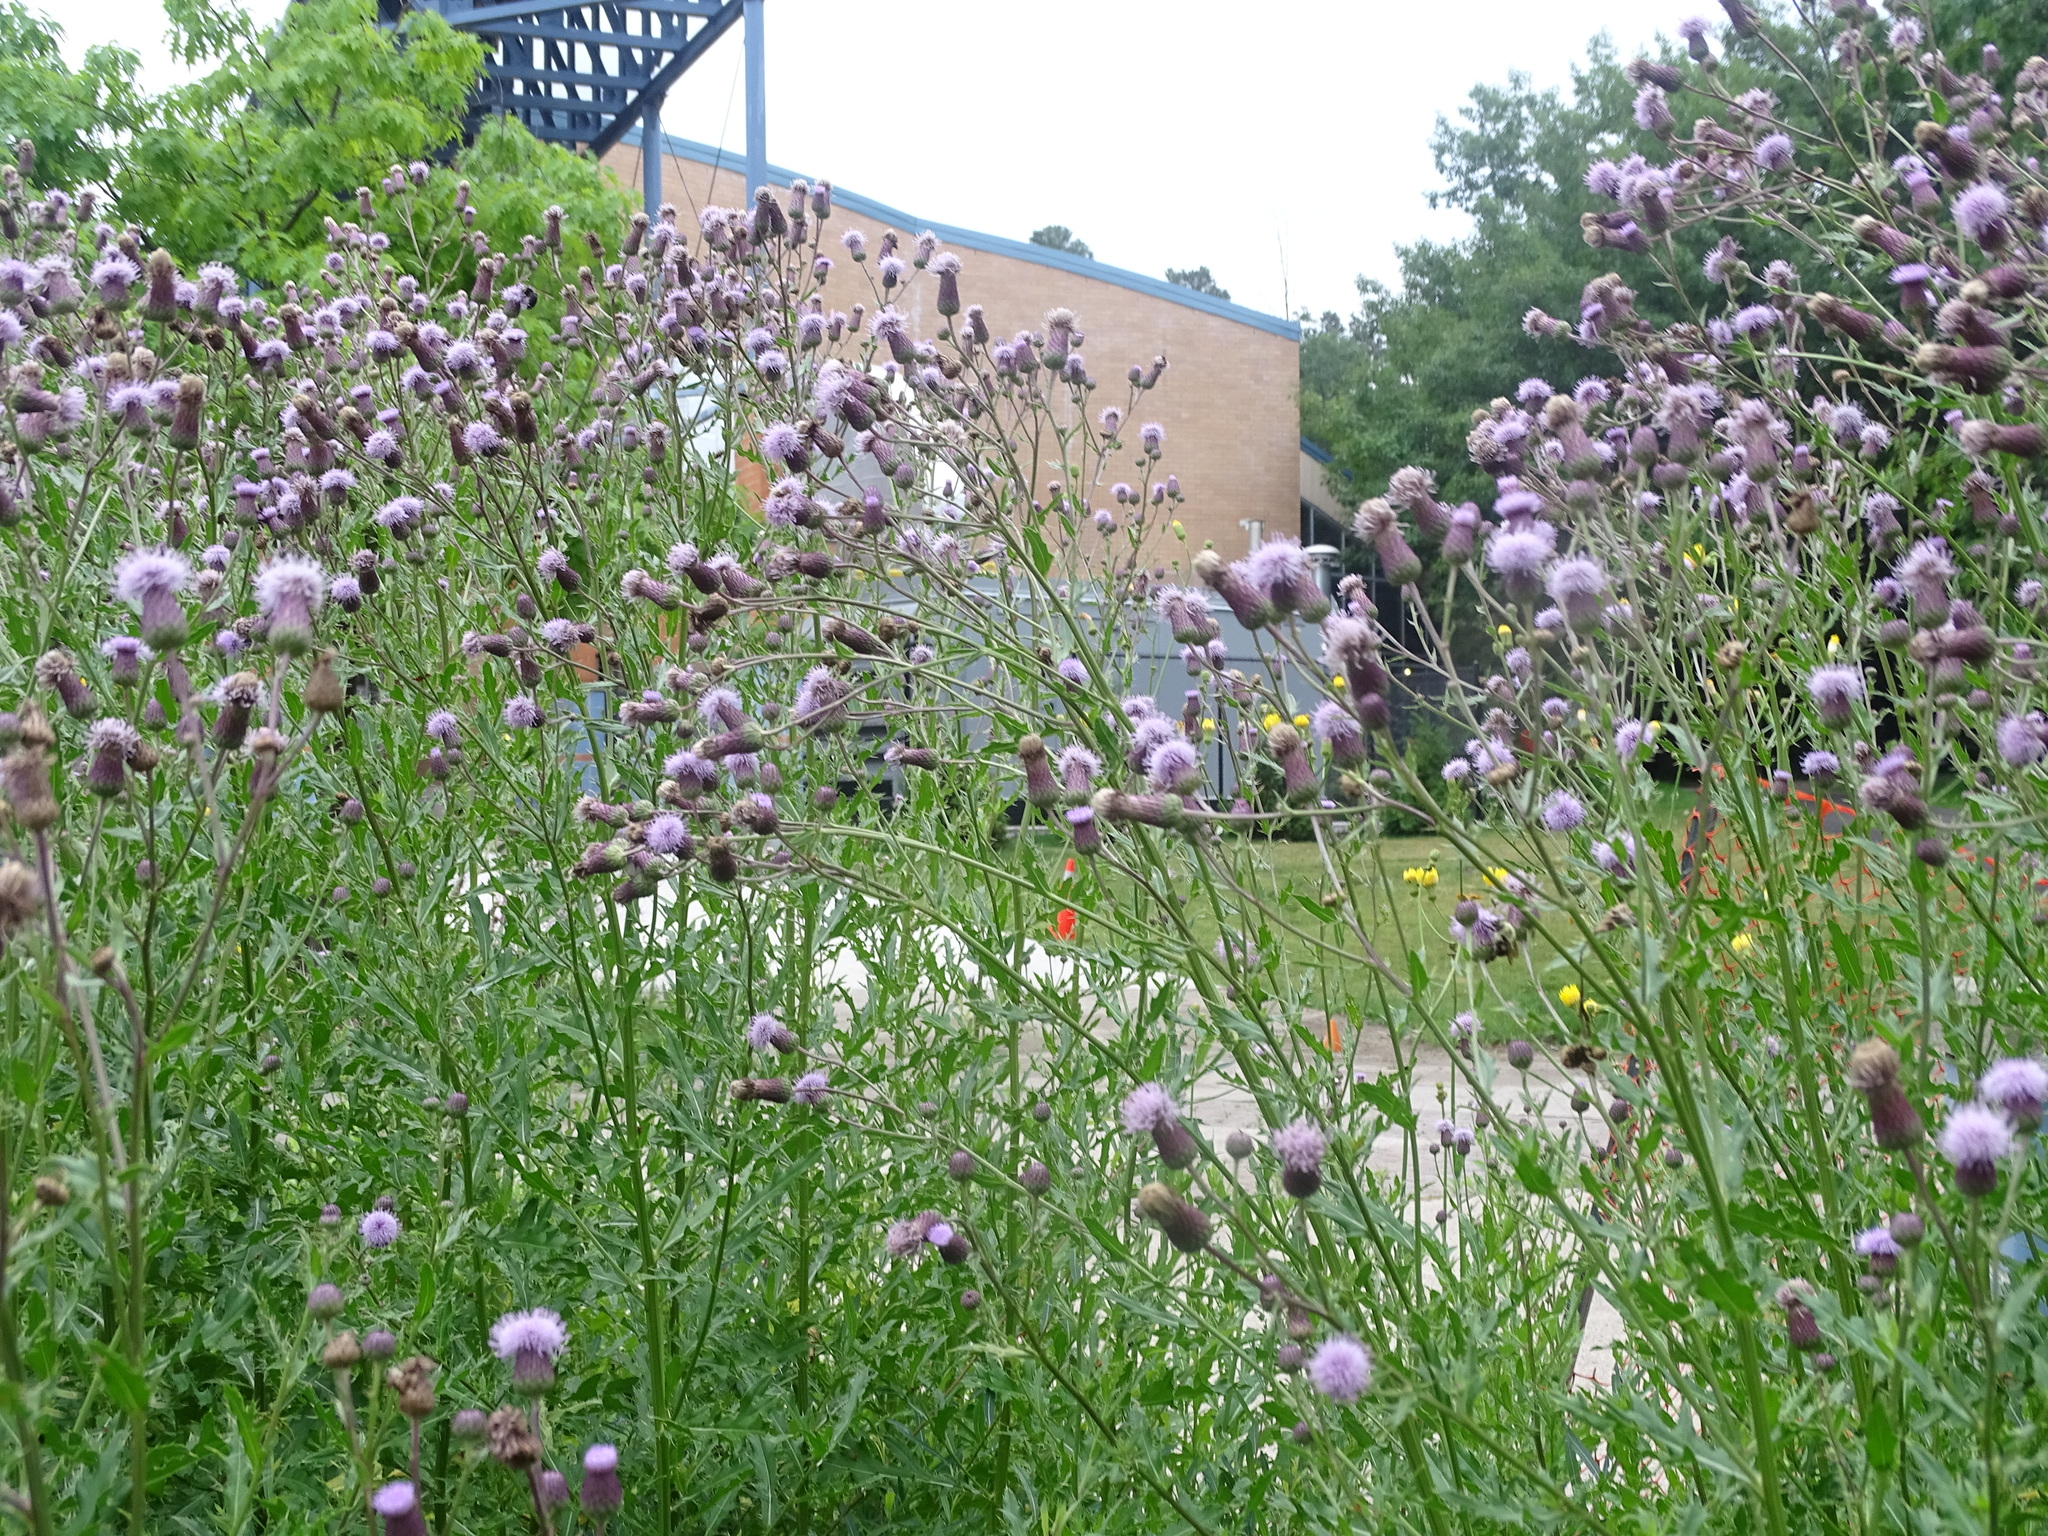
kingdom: Plantae
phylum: Tracheophyta
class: Magnoliopsida
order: Asterales
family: Asteraceae
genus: Cirsium
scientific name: Cirsium arvense
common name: Creeping thistle
